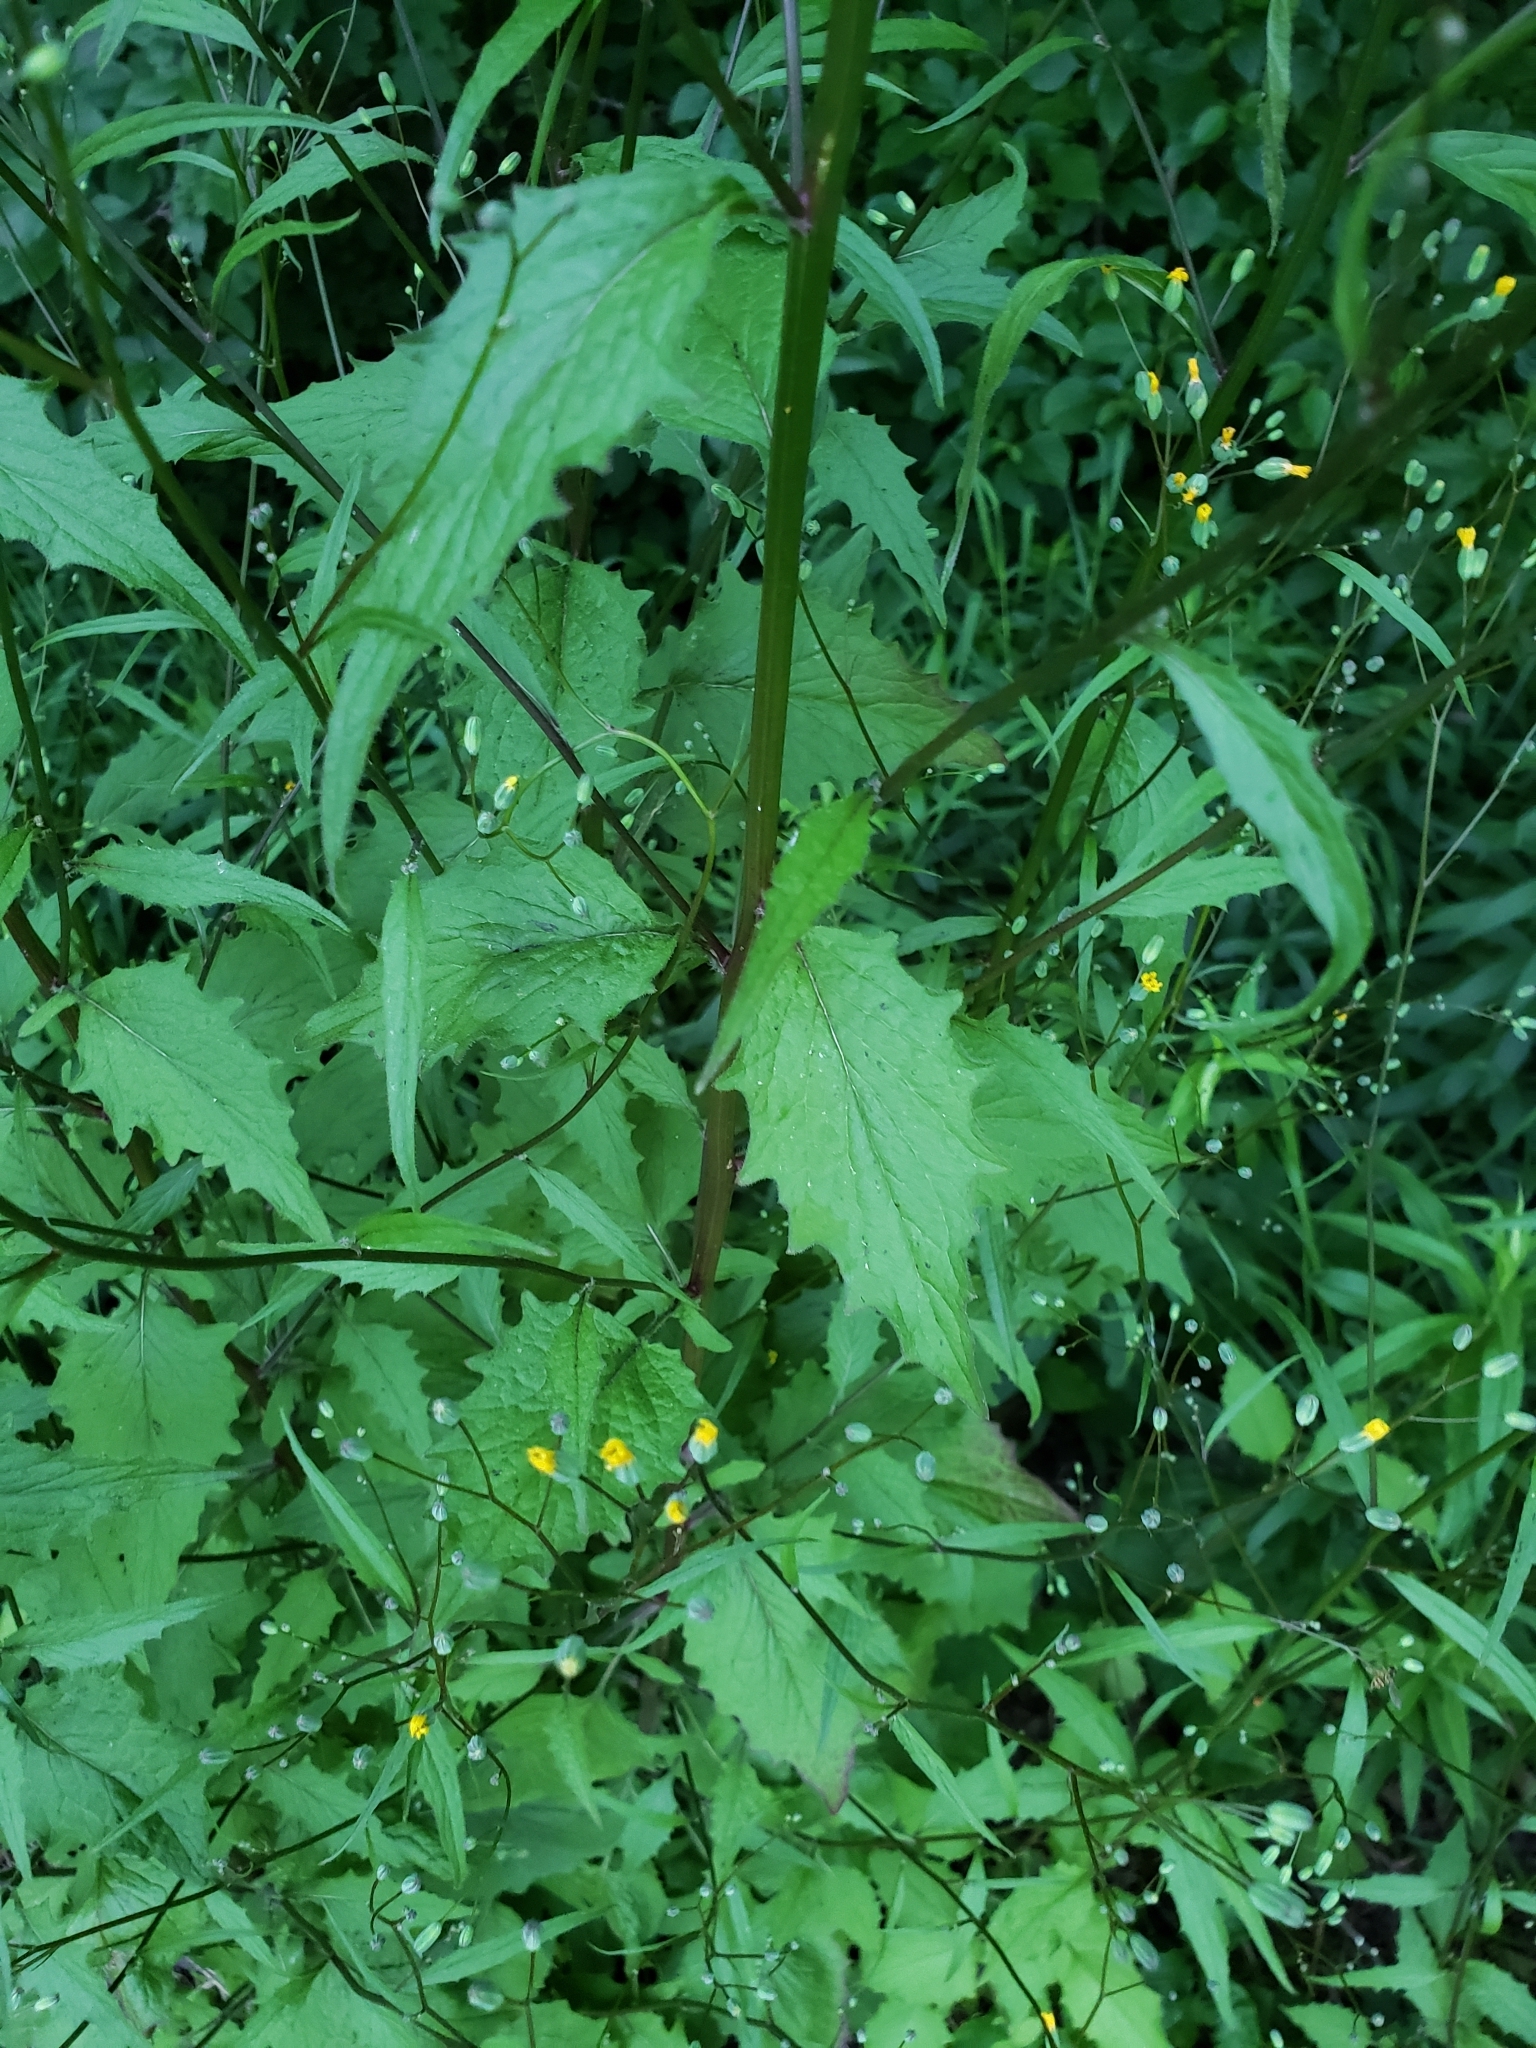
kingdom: Plantae
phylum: Tracheophyta
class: Magnoliopsida
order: Asterales
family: Asteraceae
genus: Lapsana
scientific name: Lapsana communis
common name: Nipplewort
